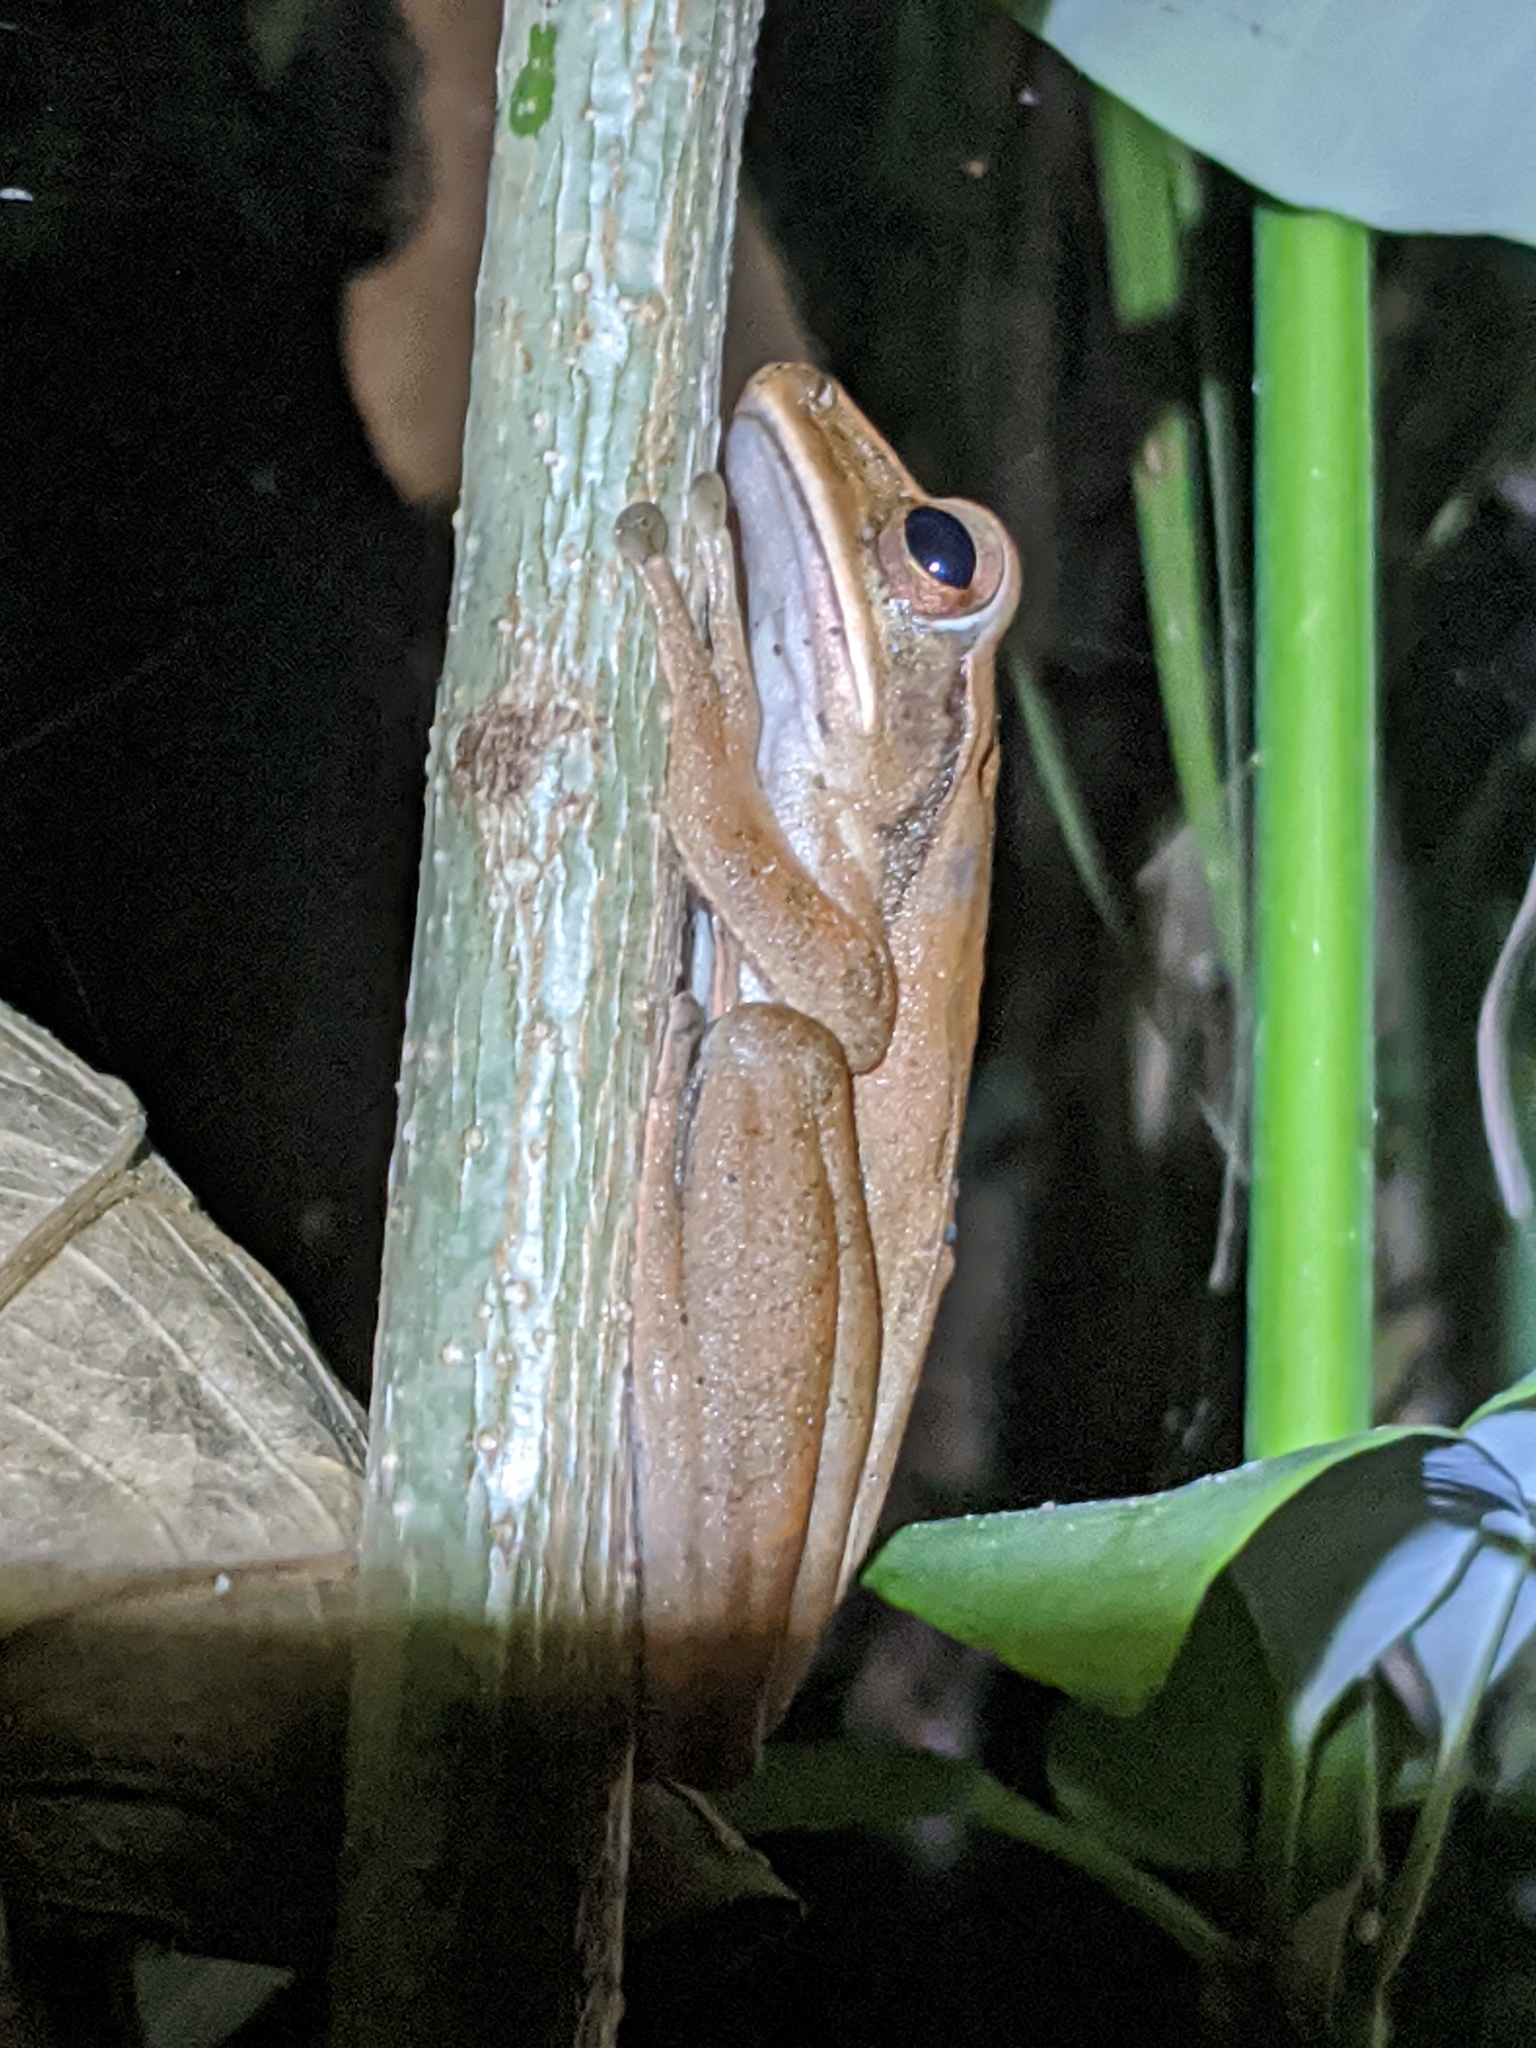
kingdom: Animalia
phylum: Chordata
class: Amphibia
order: Anura
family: Rhacophoridae
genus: Polypedates
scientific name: Polypedates leucomystax
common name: Common tree frog/four-lined tree frog
